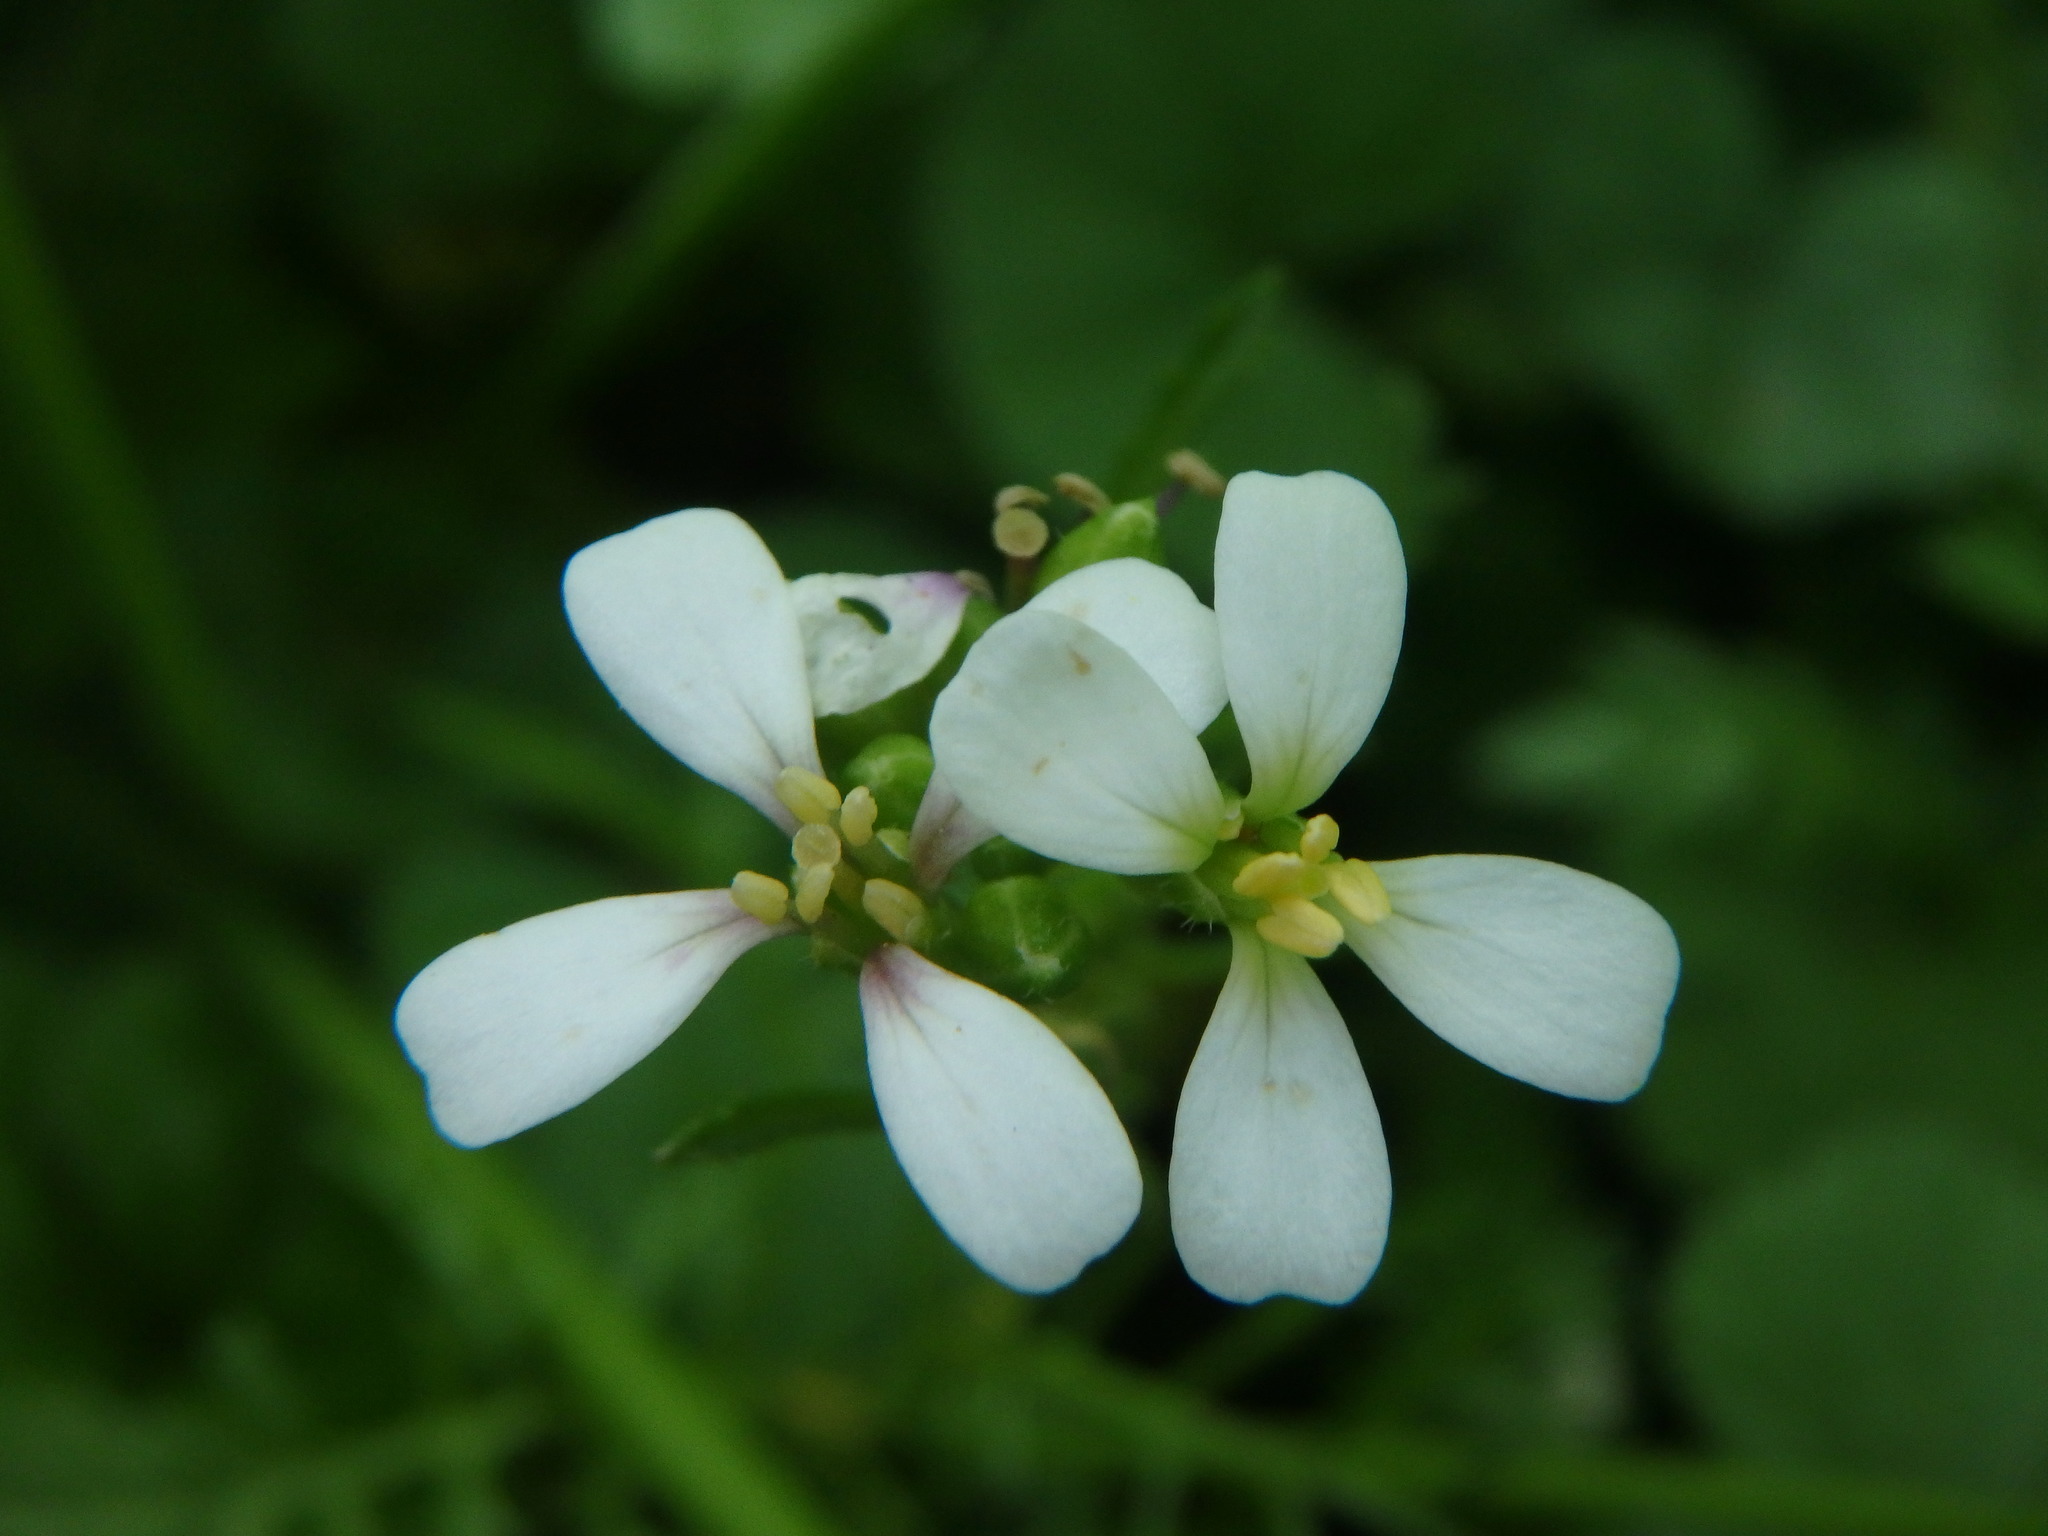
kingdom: Plantae
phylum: Tracheophyta
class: Magnoliopsida
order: Brassicales
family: Brassicaceae
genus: Erucaria
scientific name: Erucaria hispanica
